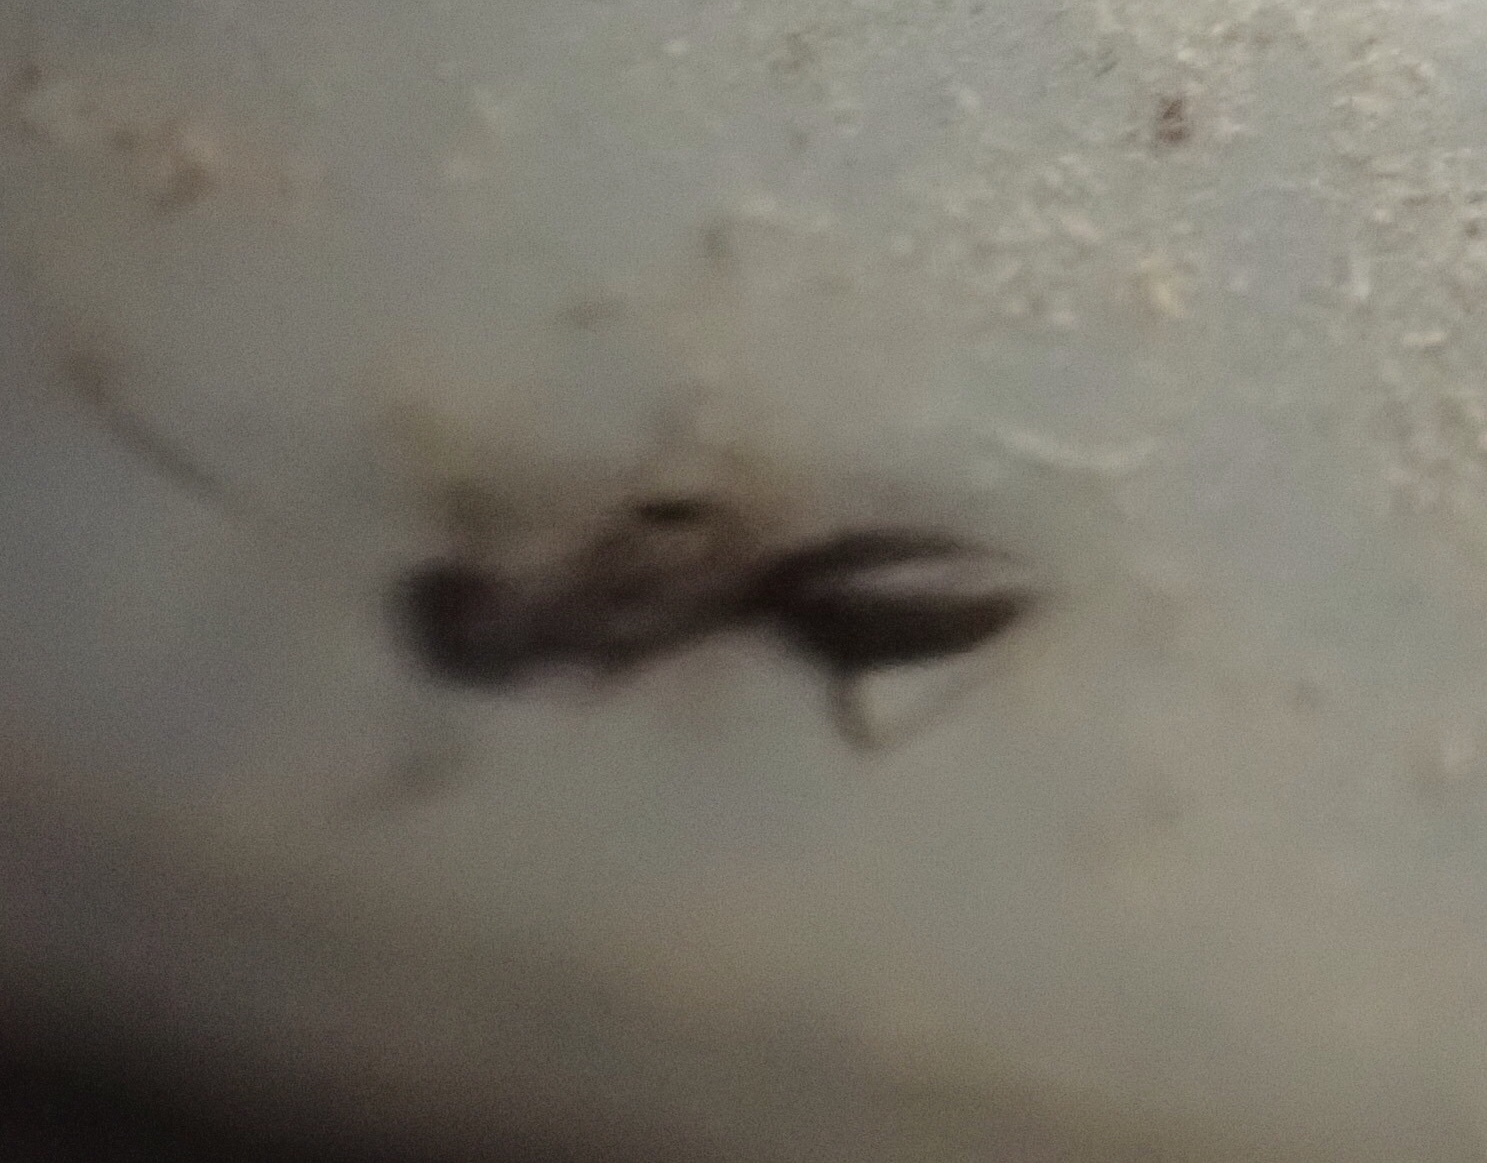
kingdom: Animalia
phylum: Arthropoda
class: Insecta
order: Hymenoptera
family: Formicidae
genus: Tapinoma
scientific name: Tapinoma sessile
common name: Odorous house ant
